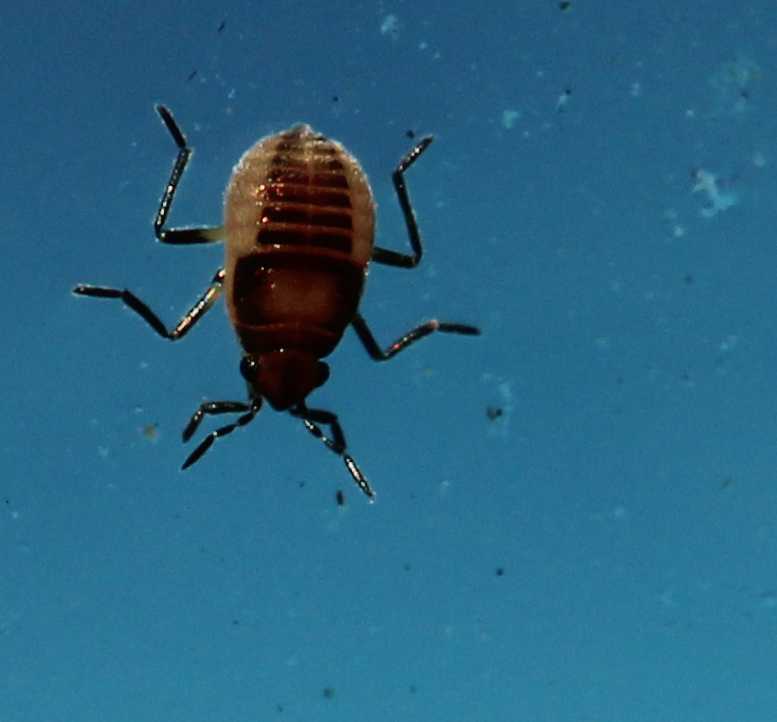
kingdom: Animalia
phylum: Arthropoda
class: Insecta
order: Hemiptera
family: Veliidae
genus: Microvelia
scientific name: Microvelia
